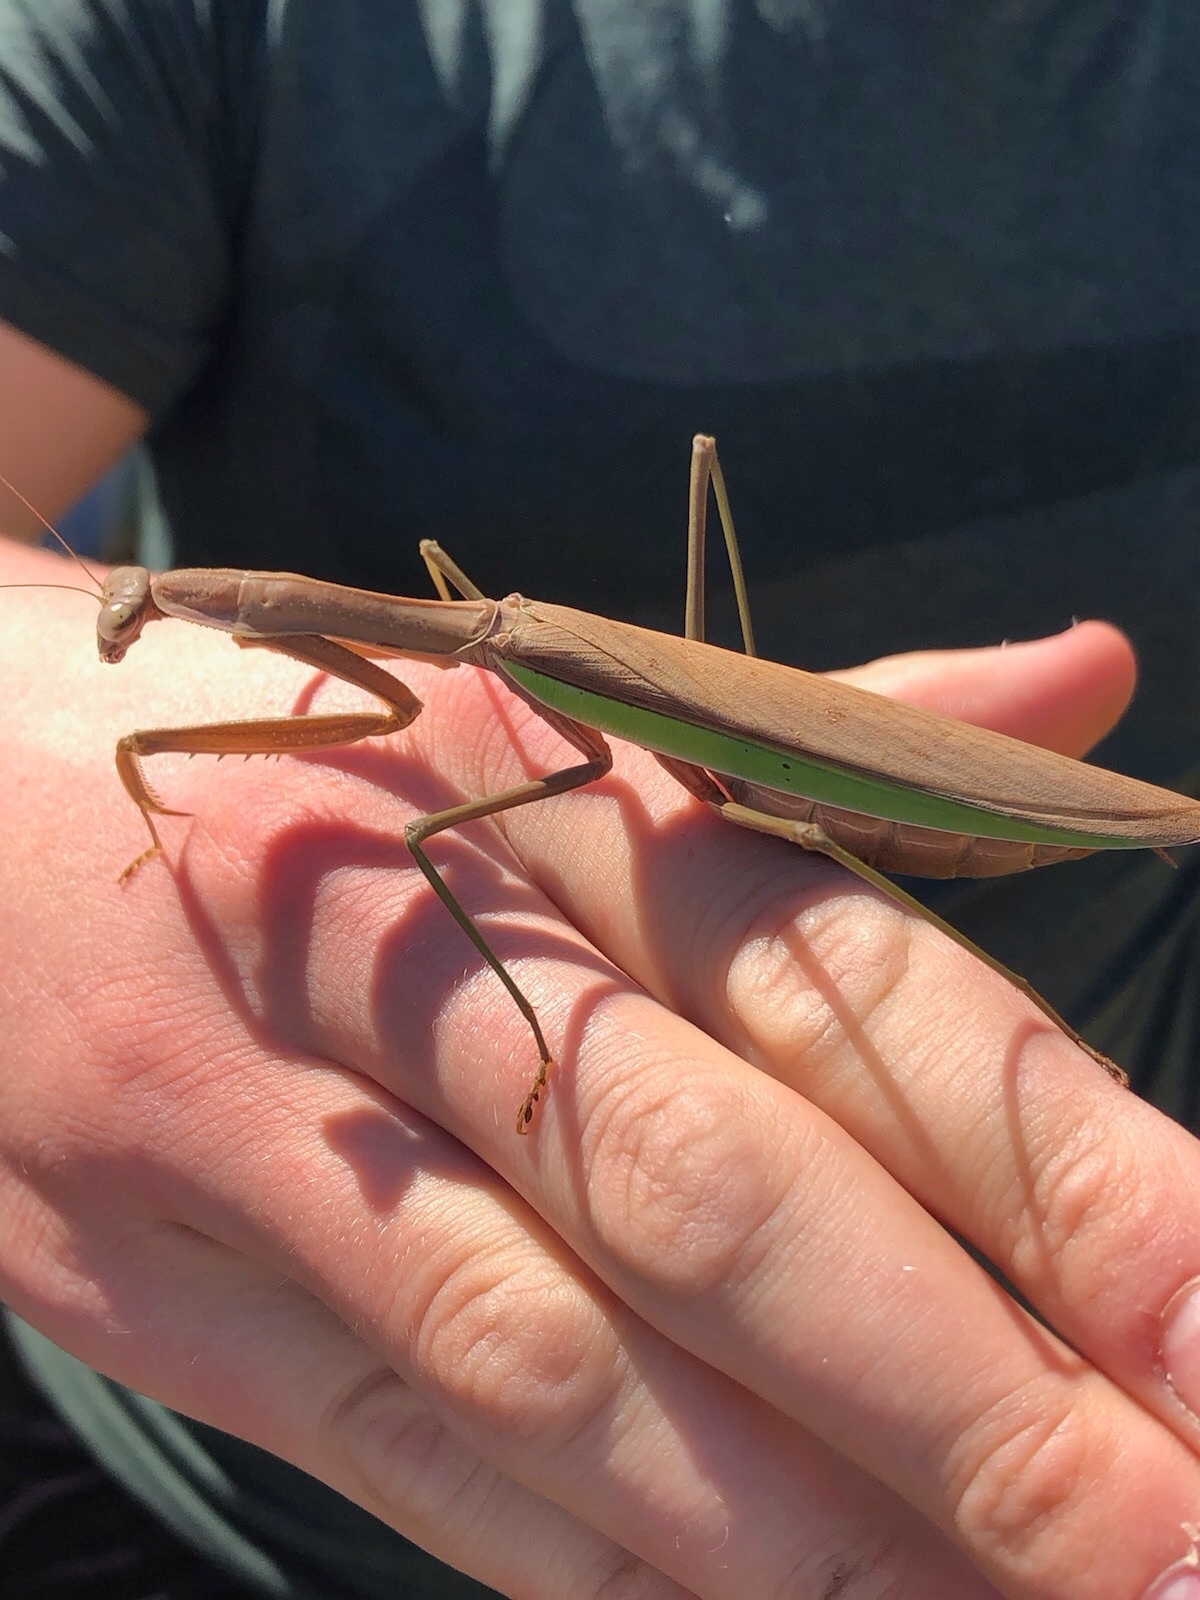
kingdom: Animalia
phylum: Arthropoda
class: Insecta
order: Mantodea
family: Mantidae
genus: Tenodera
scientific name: Tenodera sinensis
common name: Chinese mantis
